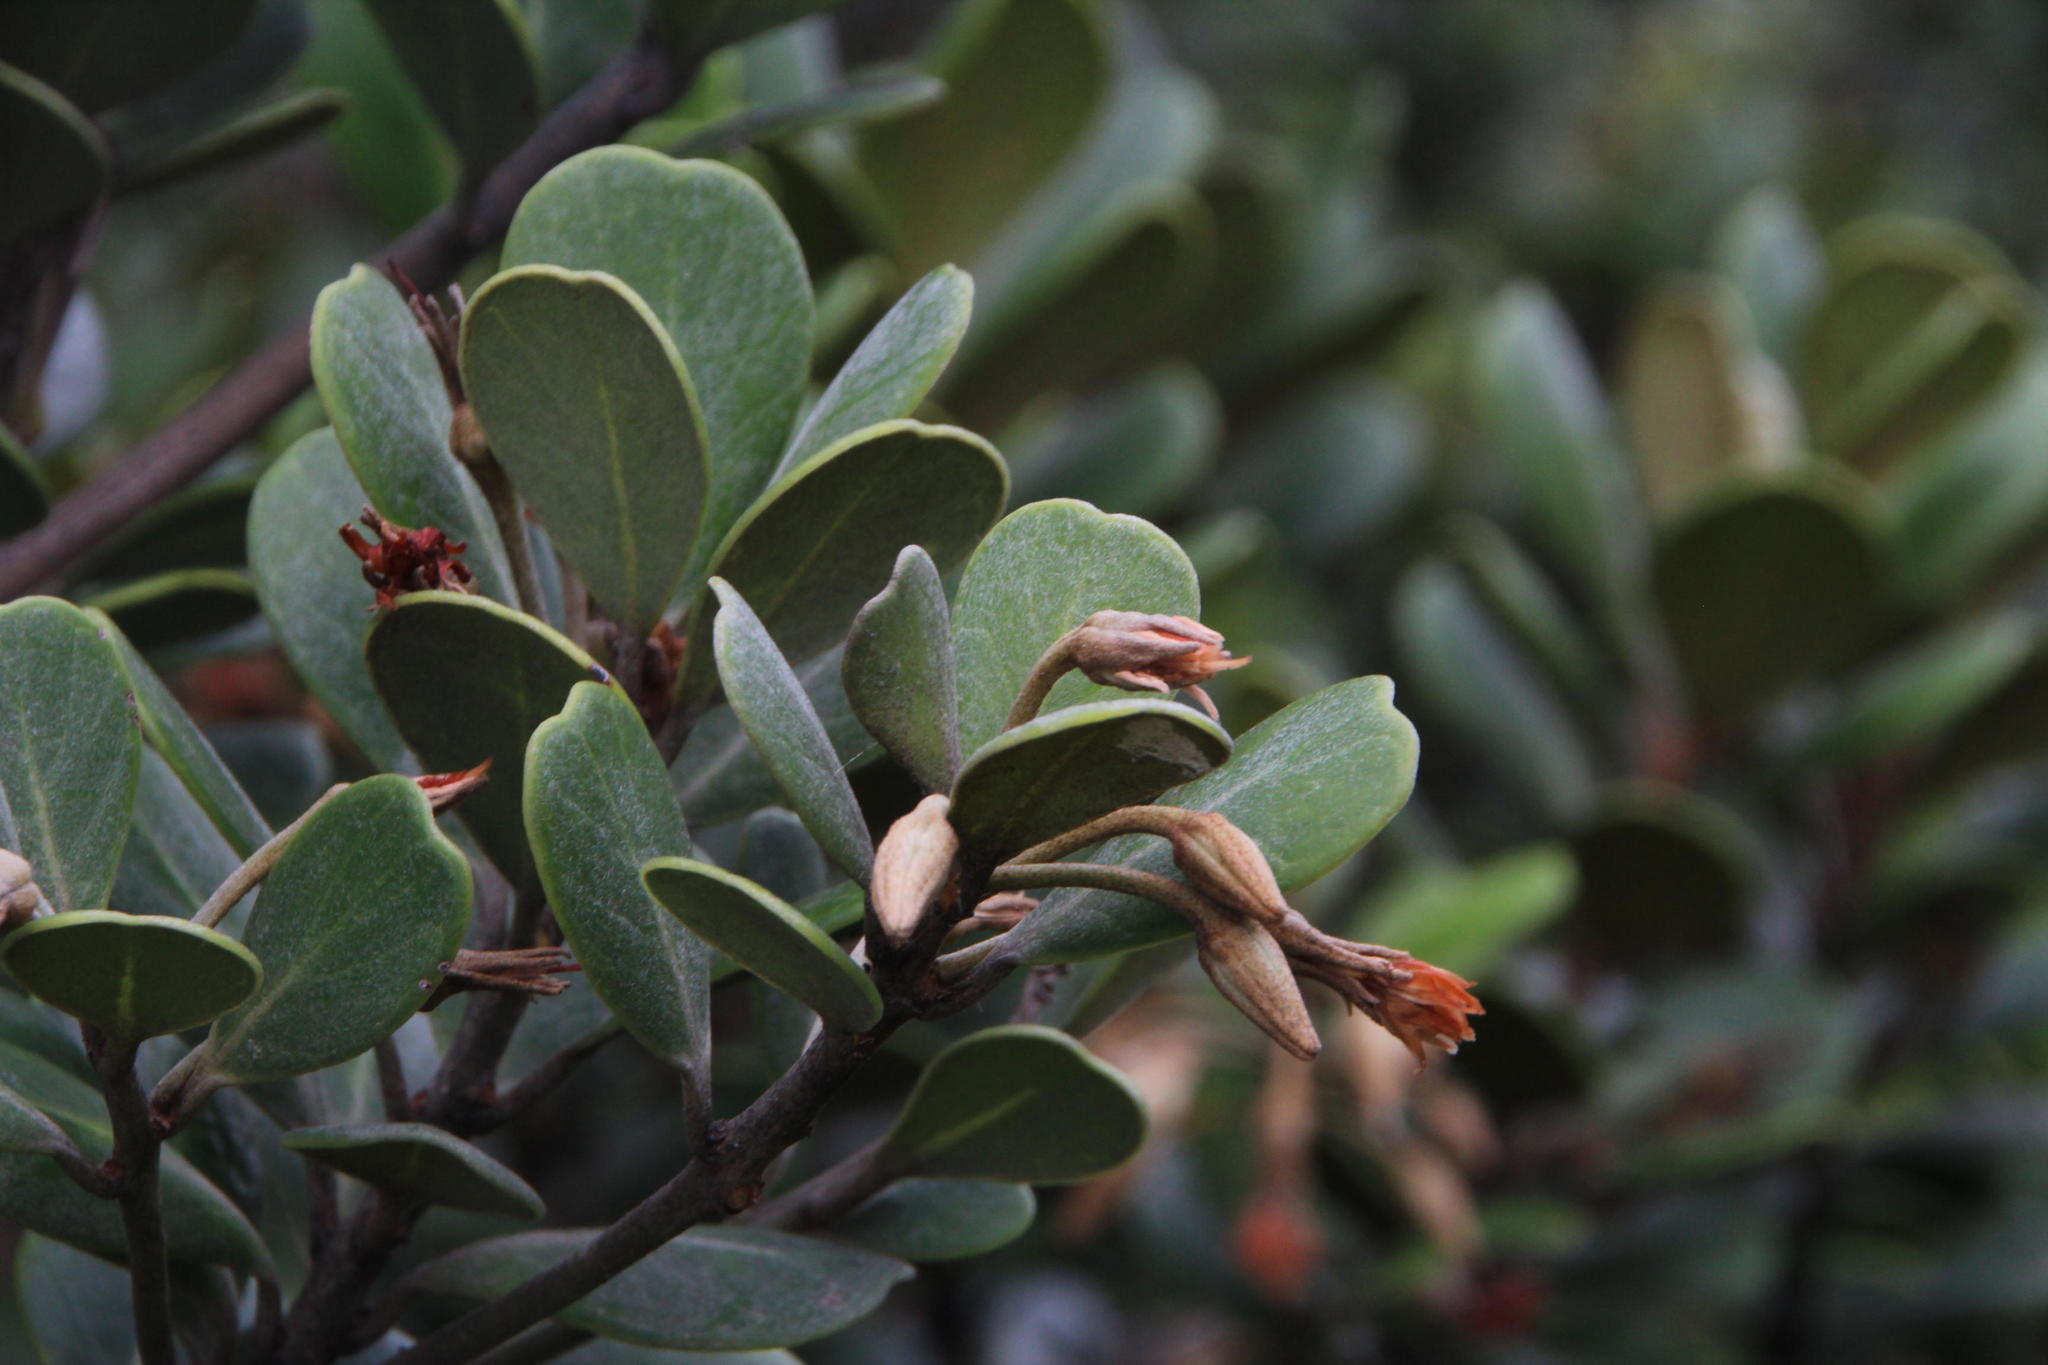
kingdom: Plantae
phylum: Tracheophyta
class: Magnoliopsida
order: Ericales
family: Sapotaceae
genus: Mimusops
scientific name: Mimusops caffra
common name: Coastal red milkwood
